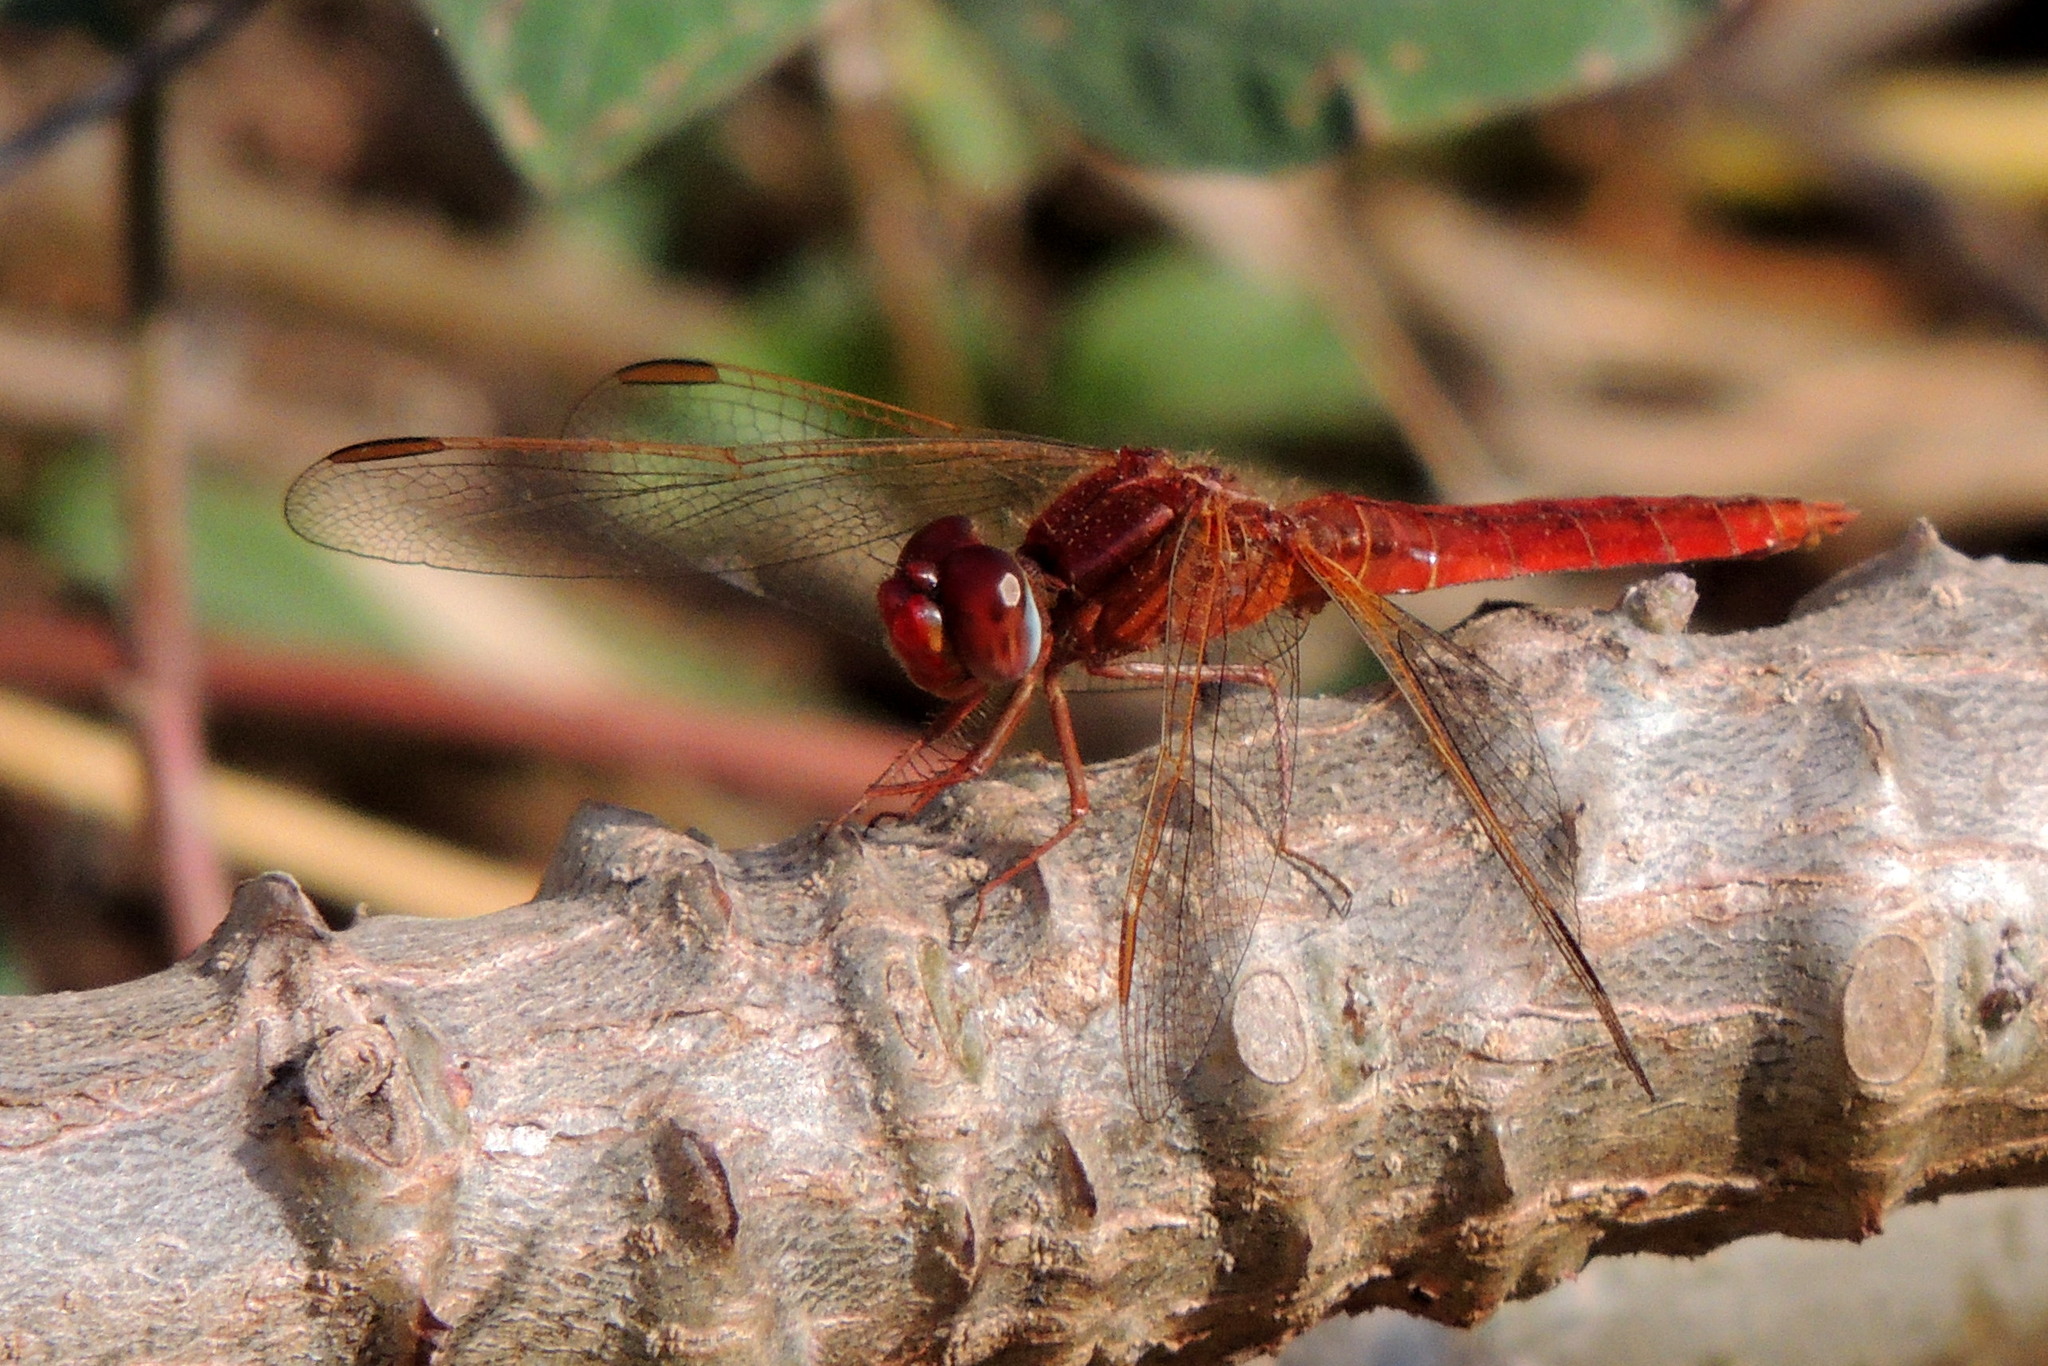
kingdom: Animalia
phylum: Arthropoda
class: Insecta
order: Odonata
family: Libellulidae
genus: Crocothemis
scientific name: Crocothemis erythraea
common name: Scarlet dragonfly
